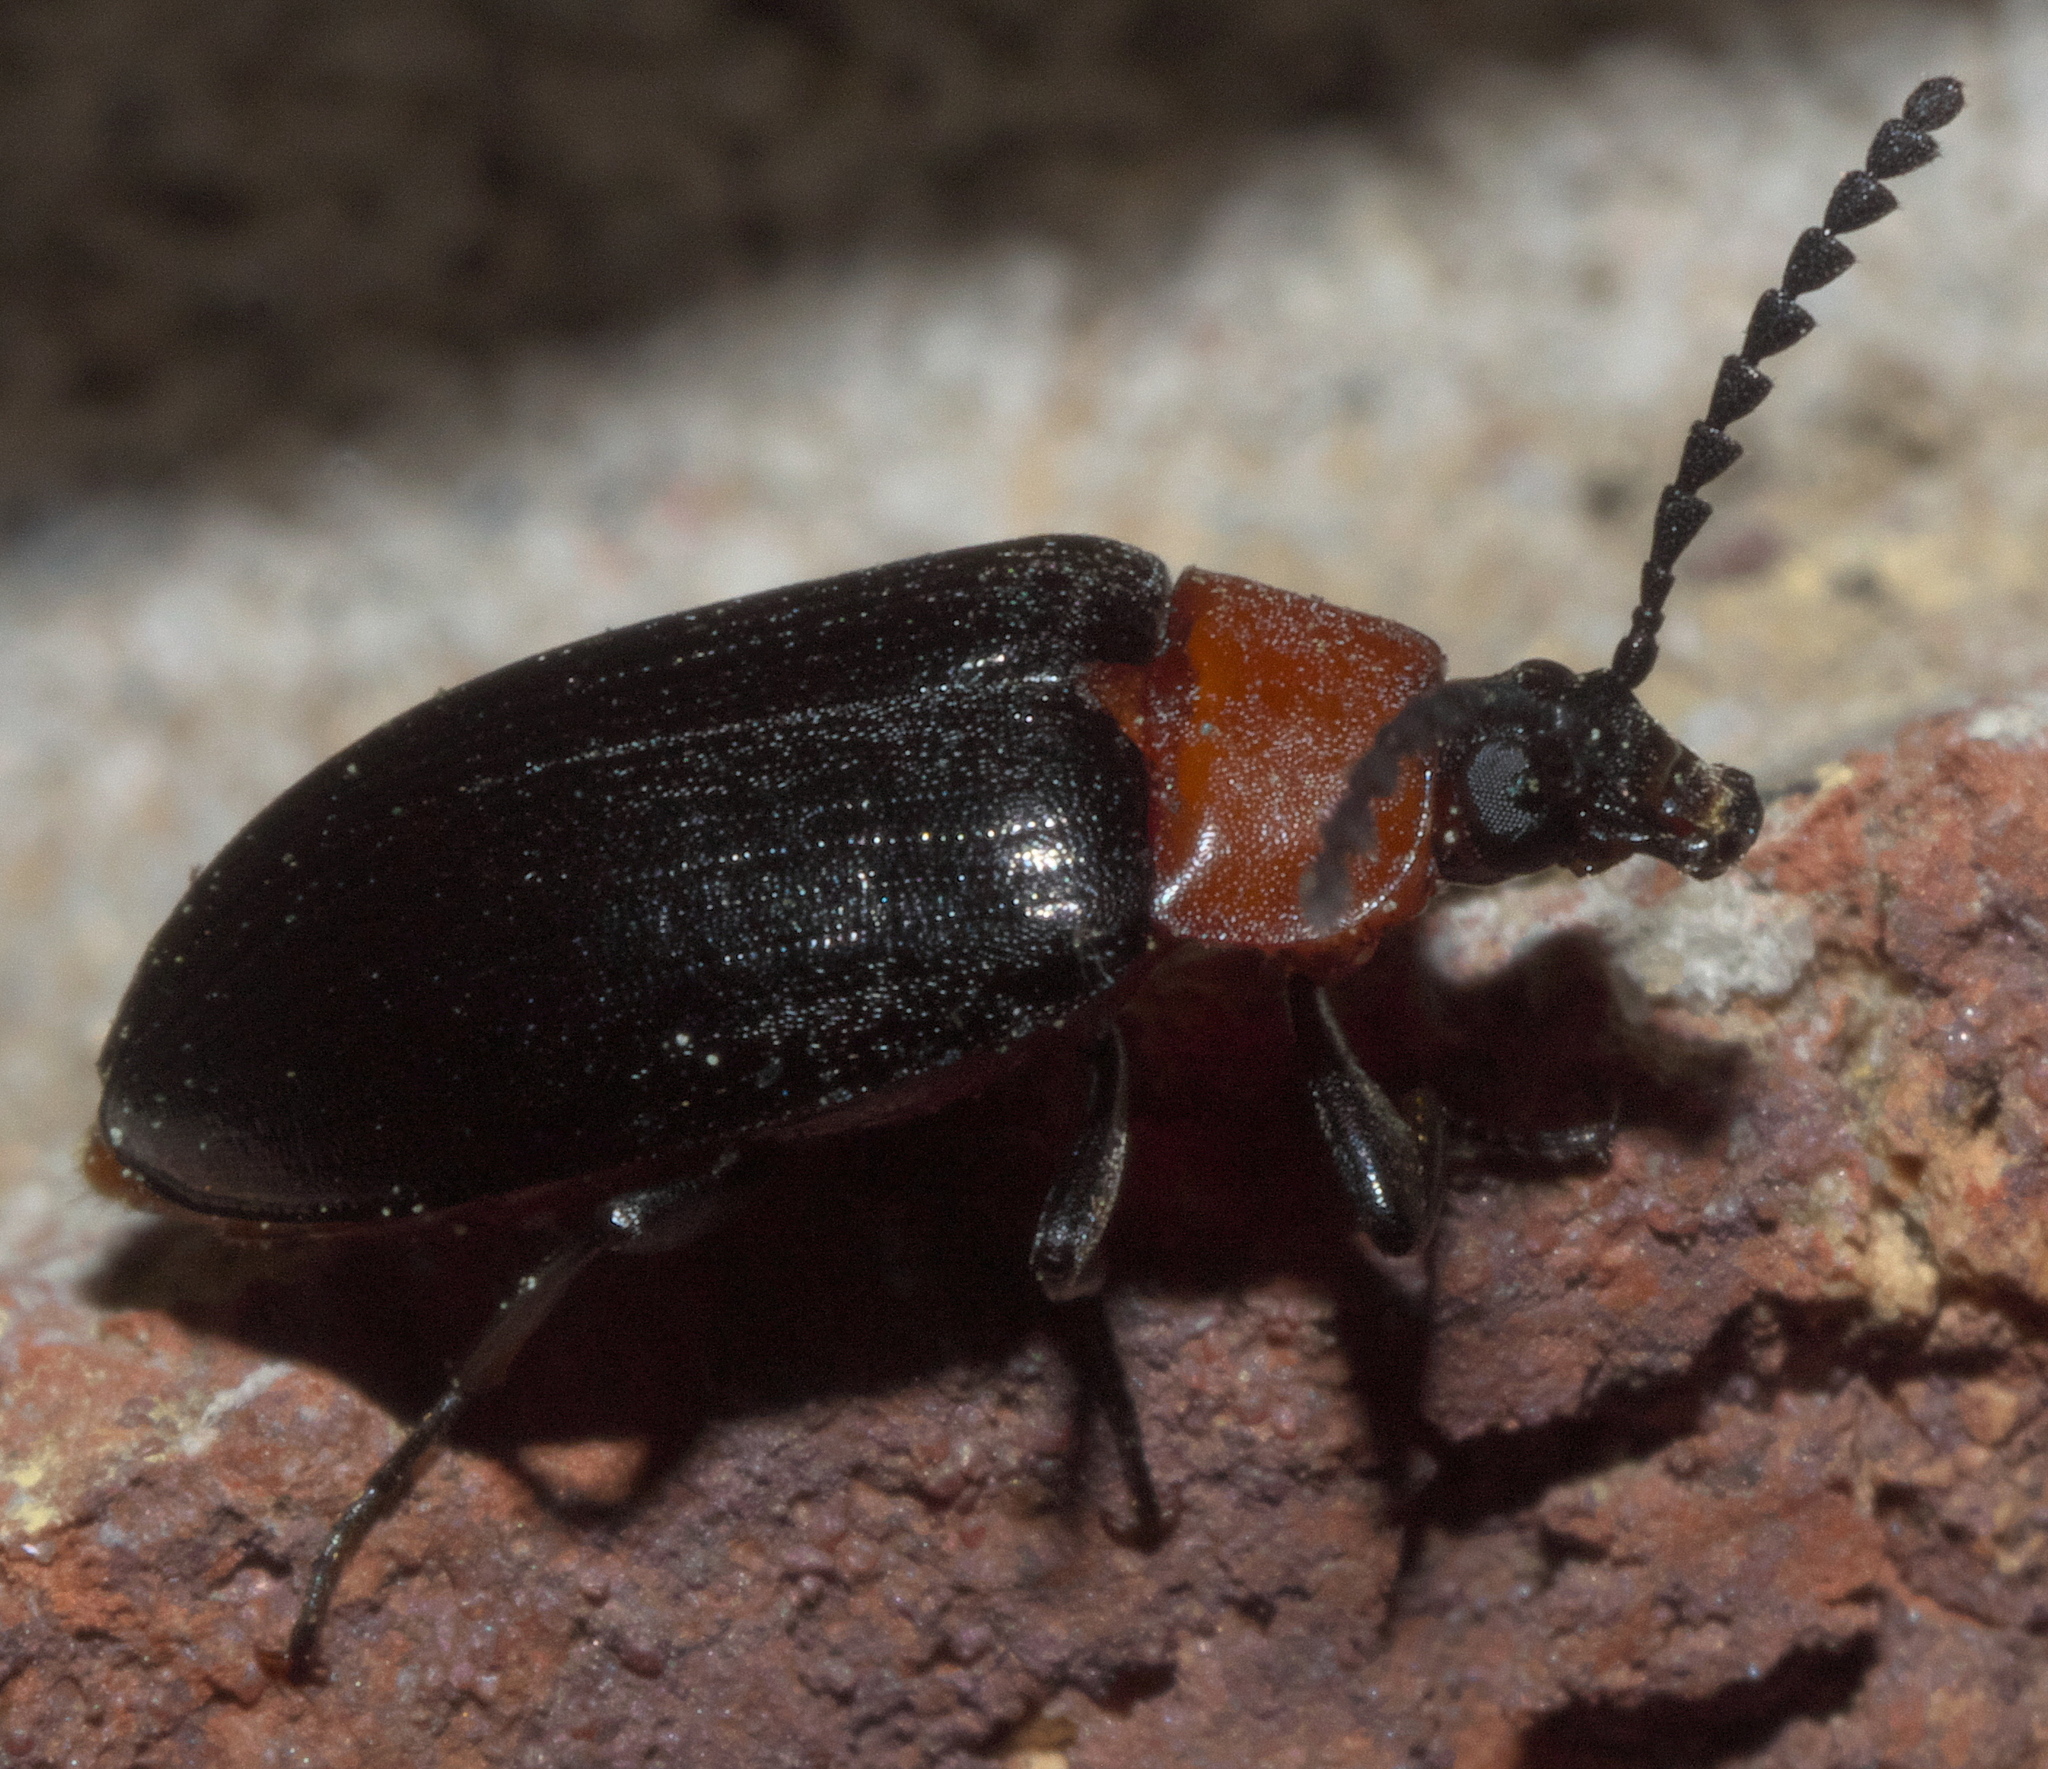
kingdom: Animalia
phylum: Arthropoda
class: Insecta
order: Coleoptera
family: Tenebrionidae
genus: Chromatia
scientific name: Chromatia amoena
